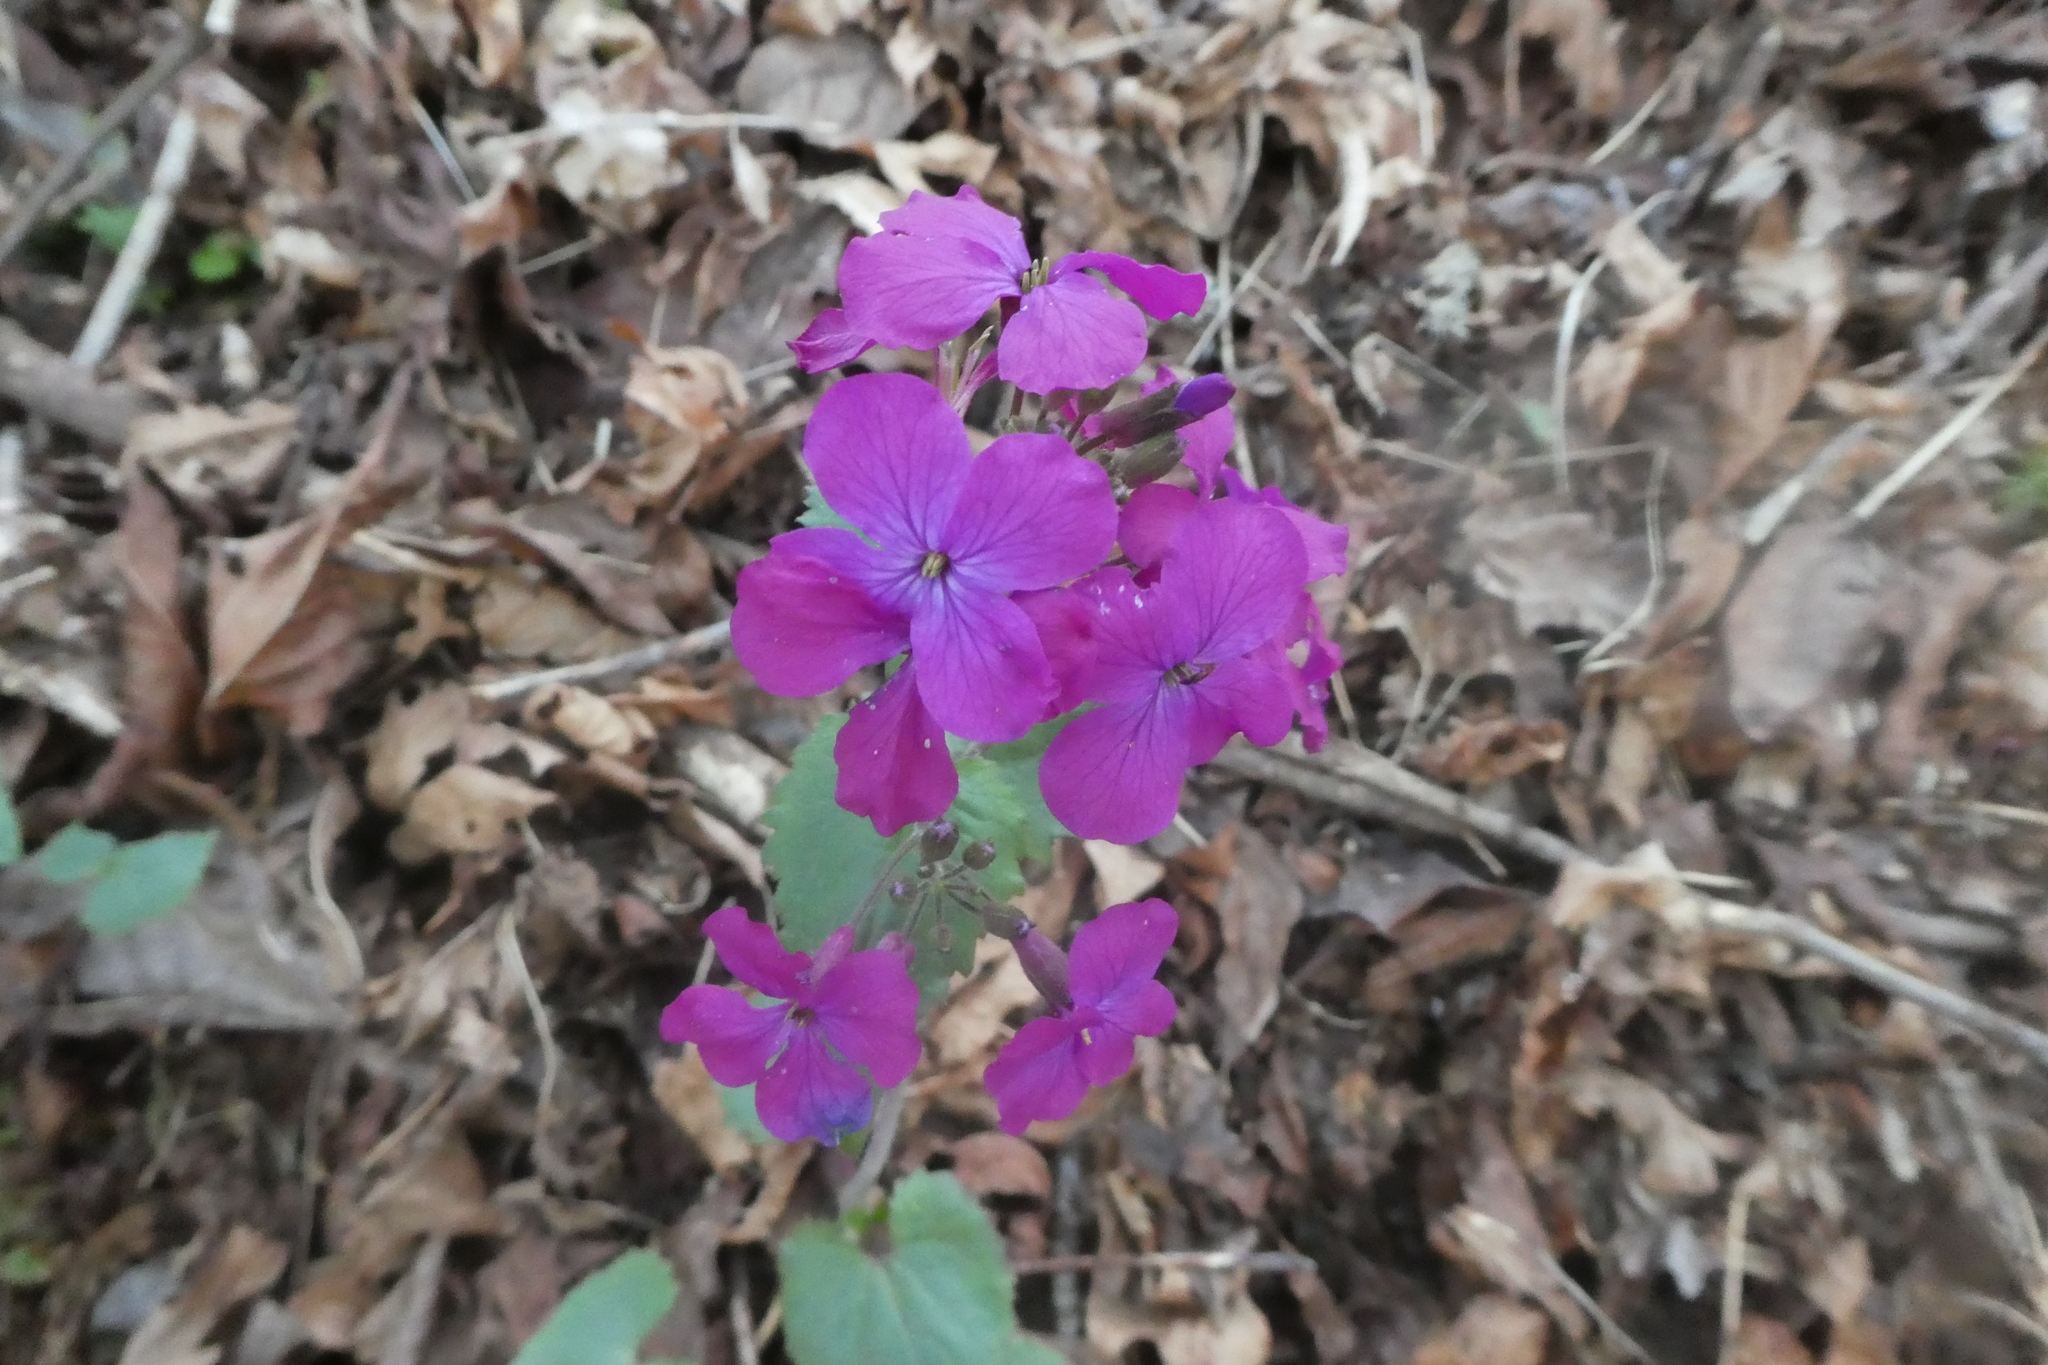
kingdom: Plantae
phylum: Tracheophyta
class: Magnoliopsida
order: Brassicales
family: Brassicaceae
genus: Lunaria
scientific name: Lunaria annua
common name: Honesty
